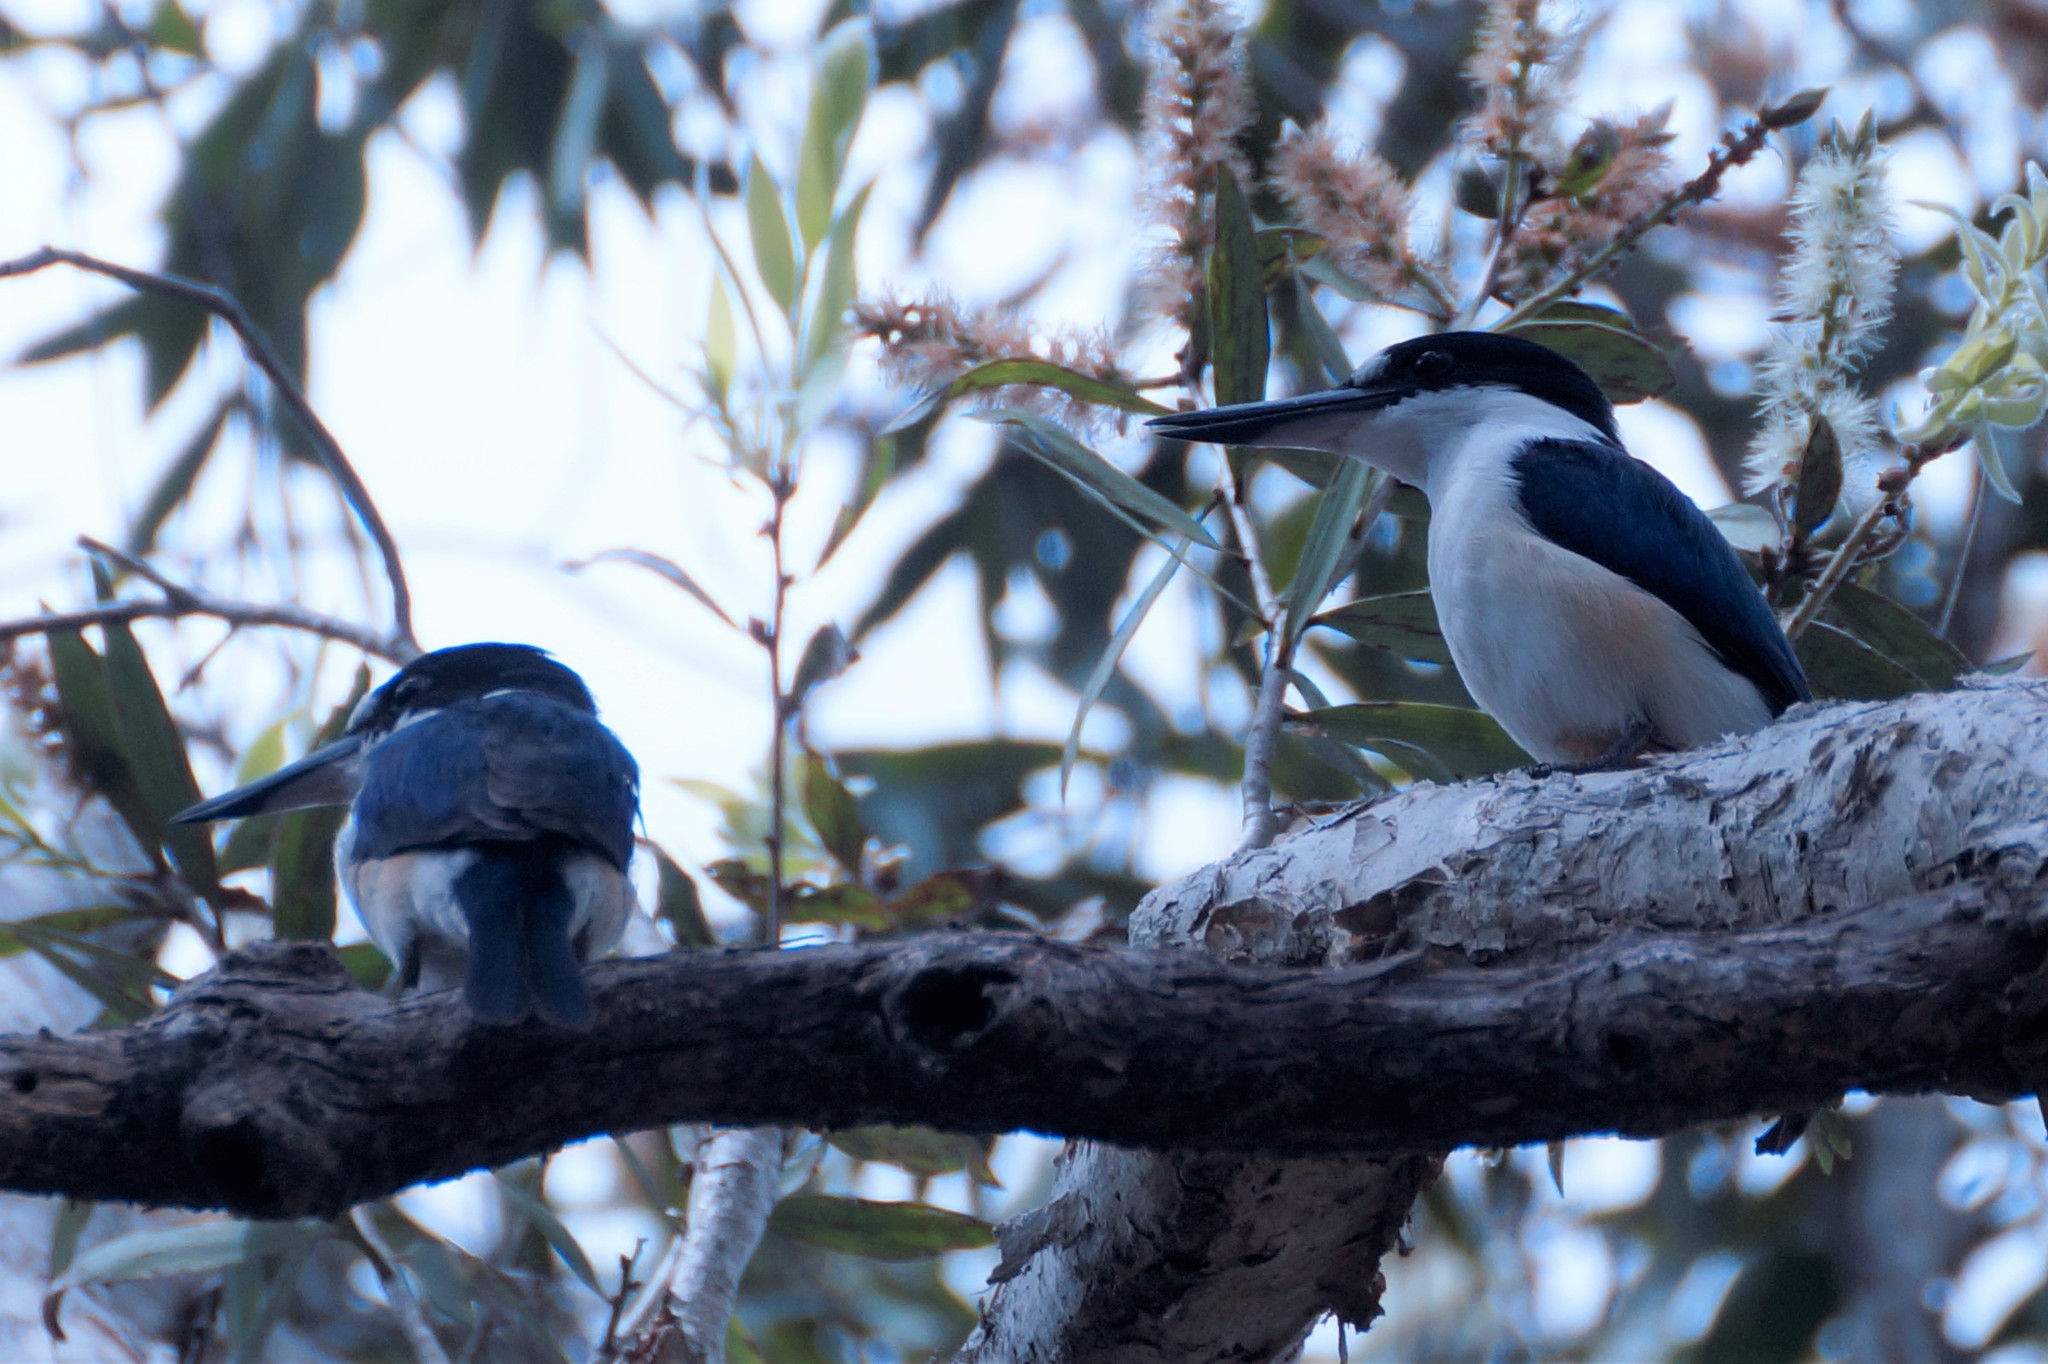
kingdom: Animalia
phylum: Chordata
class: Aves
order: Coraciiformes
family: Alcedinidae
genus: Todiramphus
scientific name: Todiramphus macleayii
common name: Forest kingfisher
